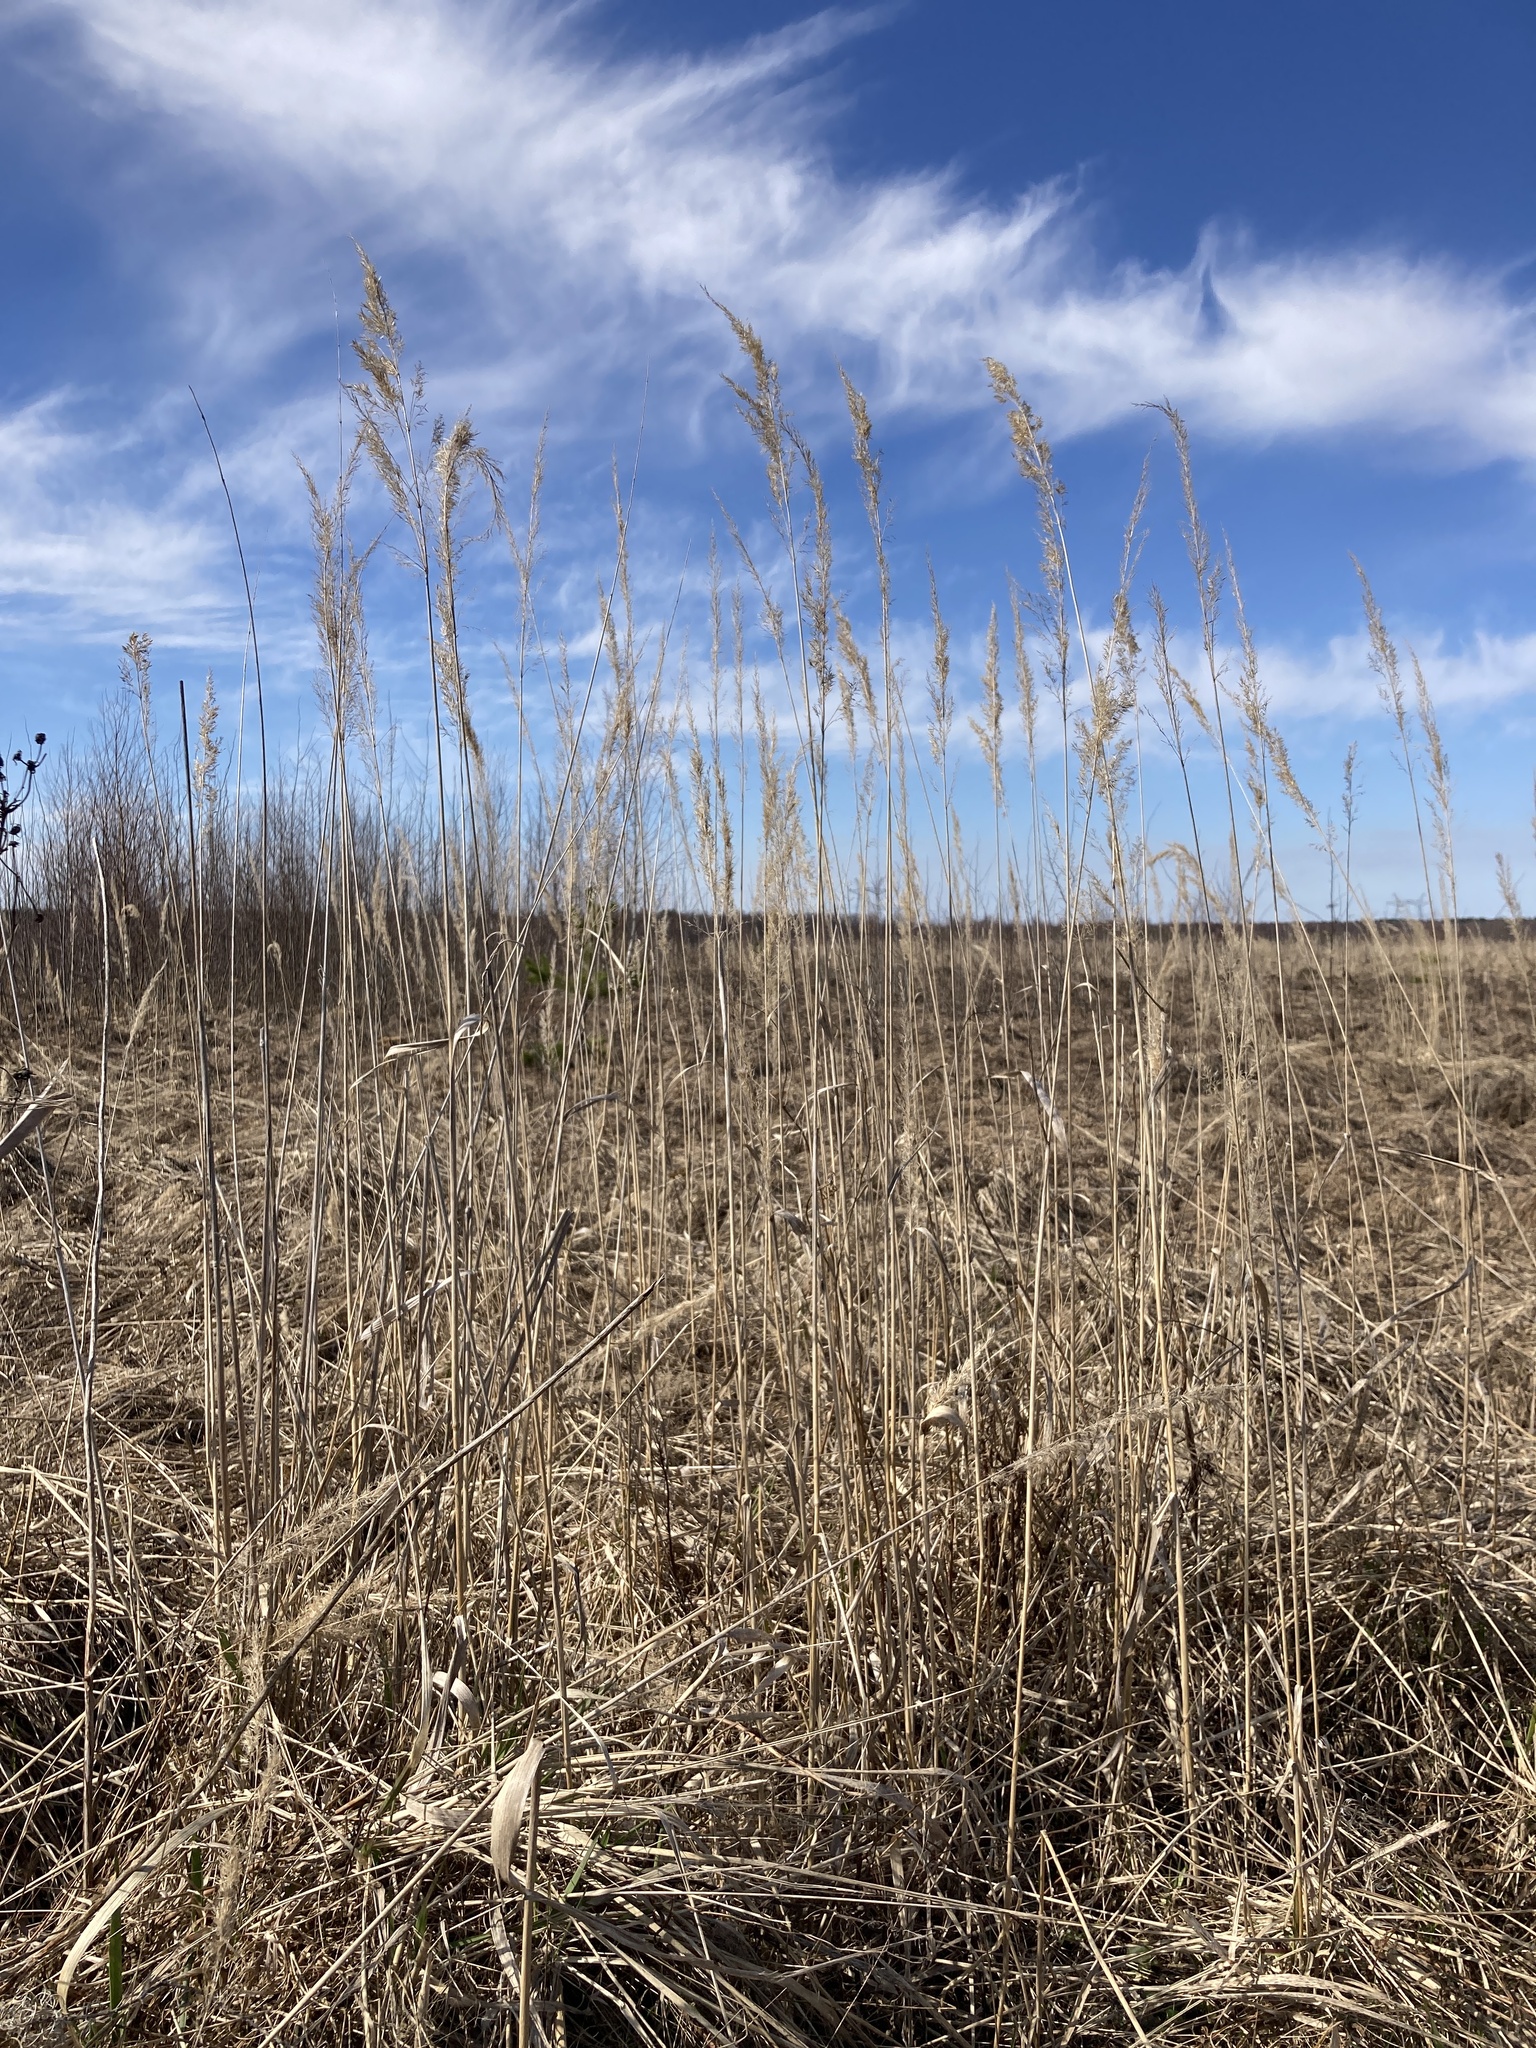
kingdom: Plantae
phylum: Tracheophyta
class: Liliopsida
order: Poales
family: Poaceae
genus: Calamagrostis
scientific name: Calamagrostis epigejos
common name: Wood small-reed
